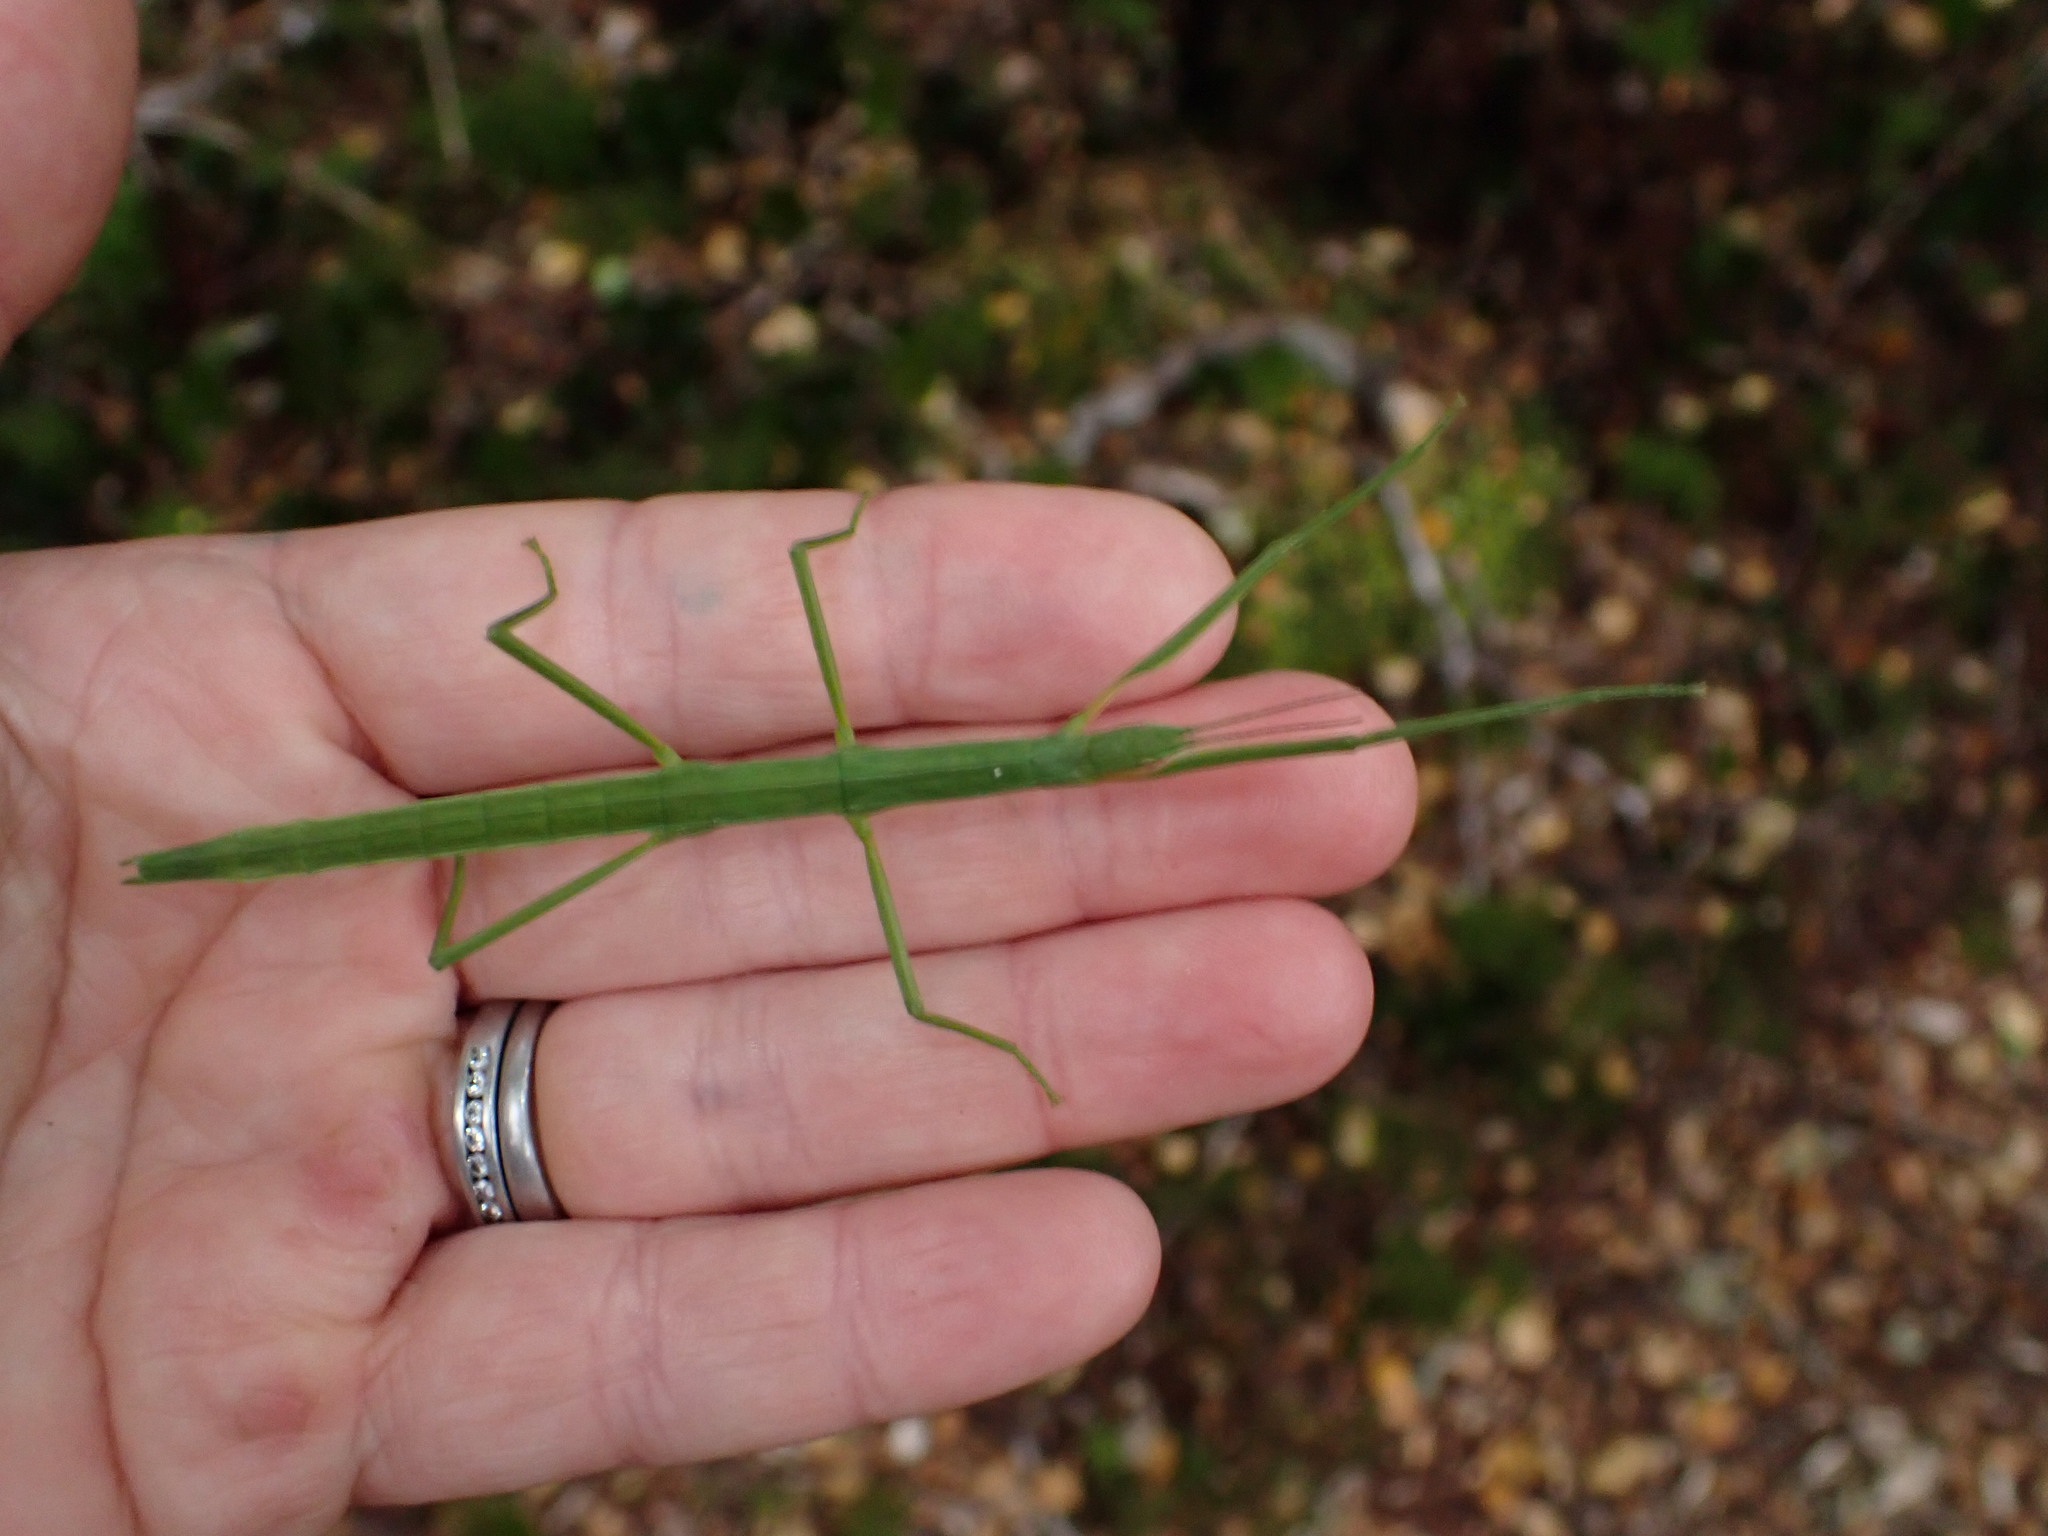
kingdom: Animalia
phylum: Arthropoda
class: Insecta
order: Phasmida
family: Phasmatidae
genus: Tectarchus
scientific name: Tectarchus huttoni
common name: The common ridge-backed stick insect
